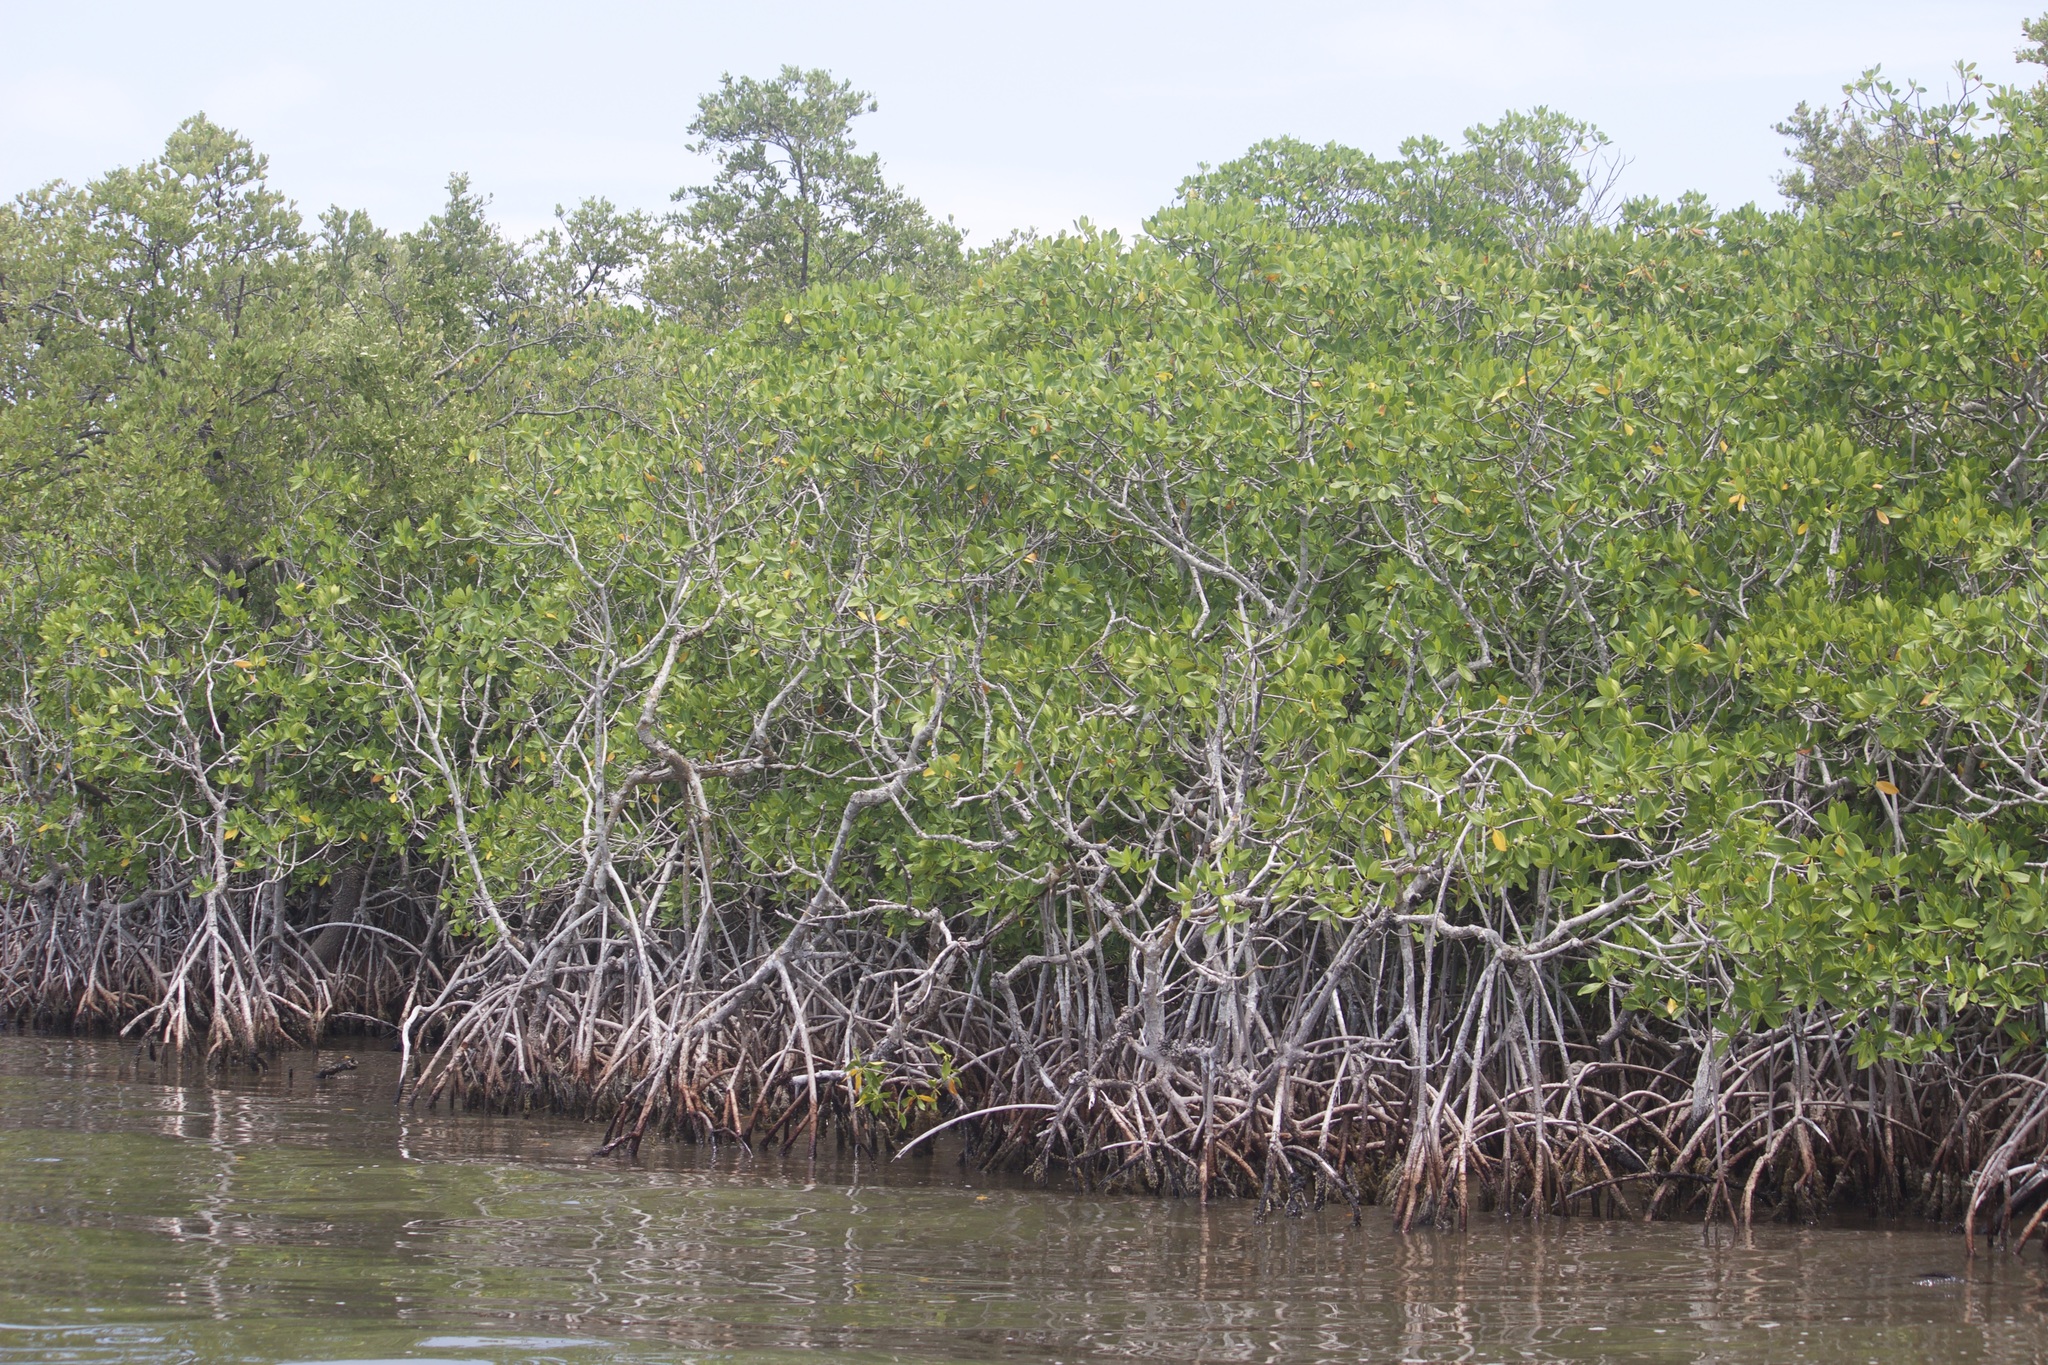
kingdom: Plantae
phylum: Tracheophyta
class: Magnoliopsida
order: Malpighiales
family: Rhizophoraceae
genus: Rhizophora
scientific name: Rhizophora mangle
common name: Red mangrove
